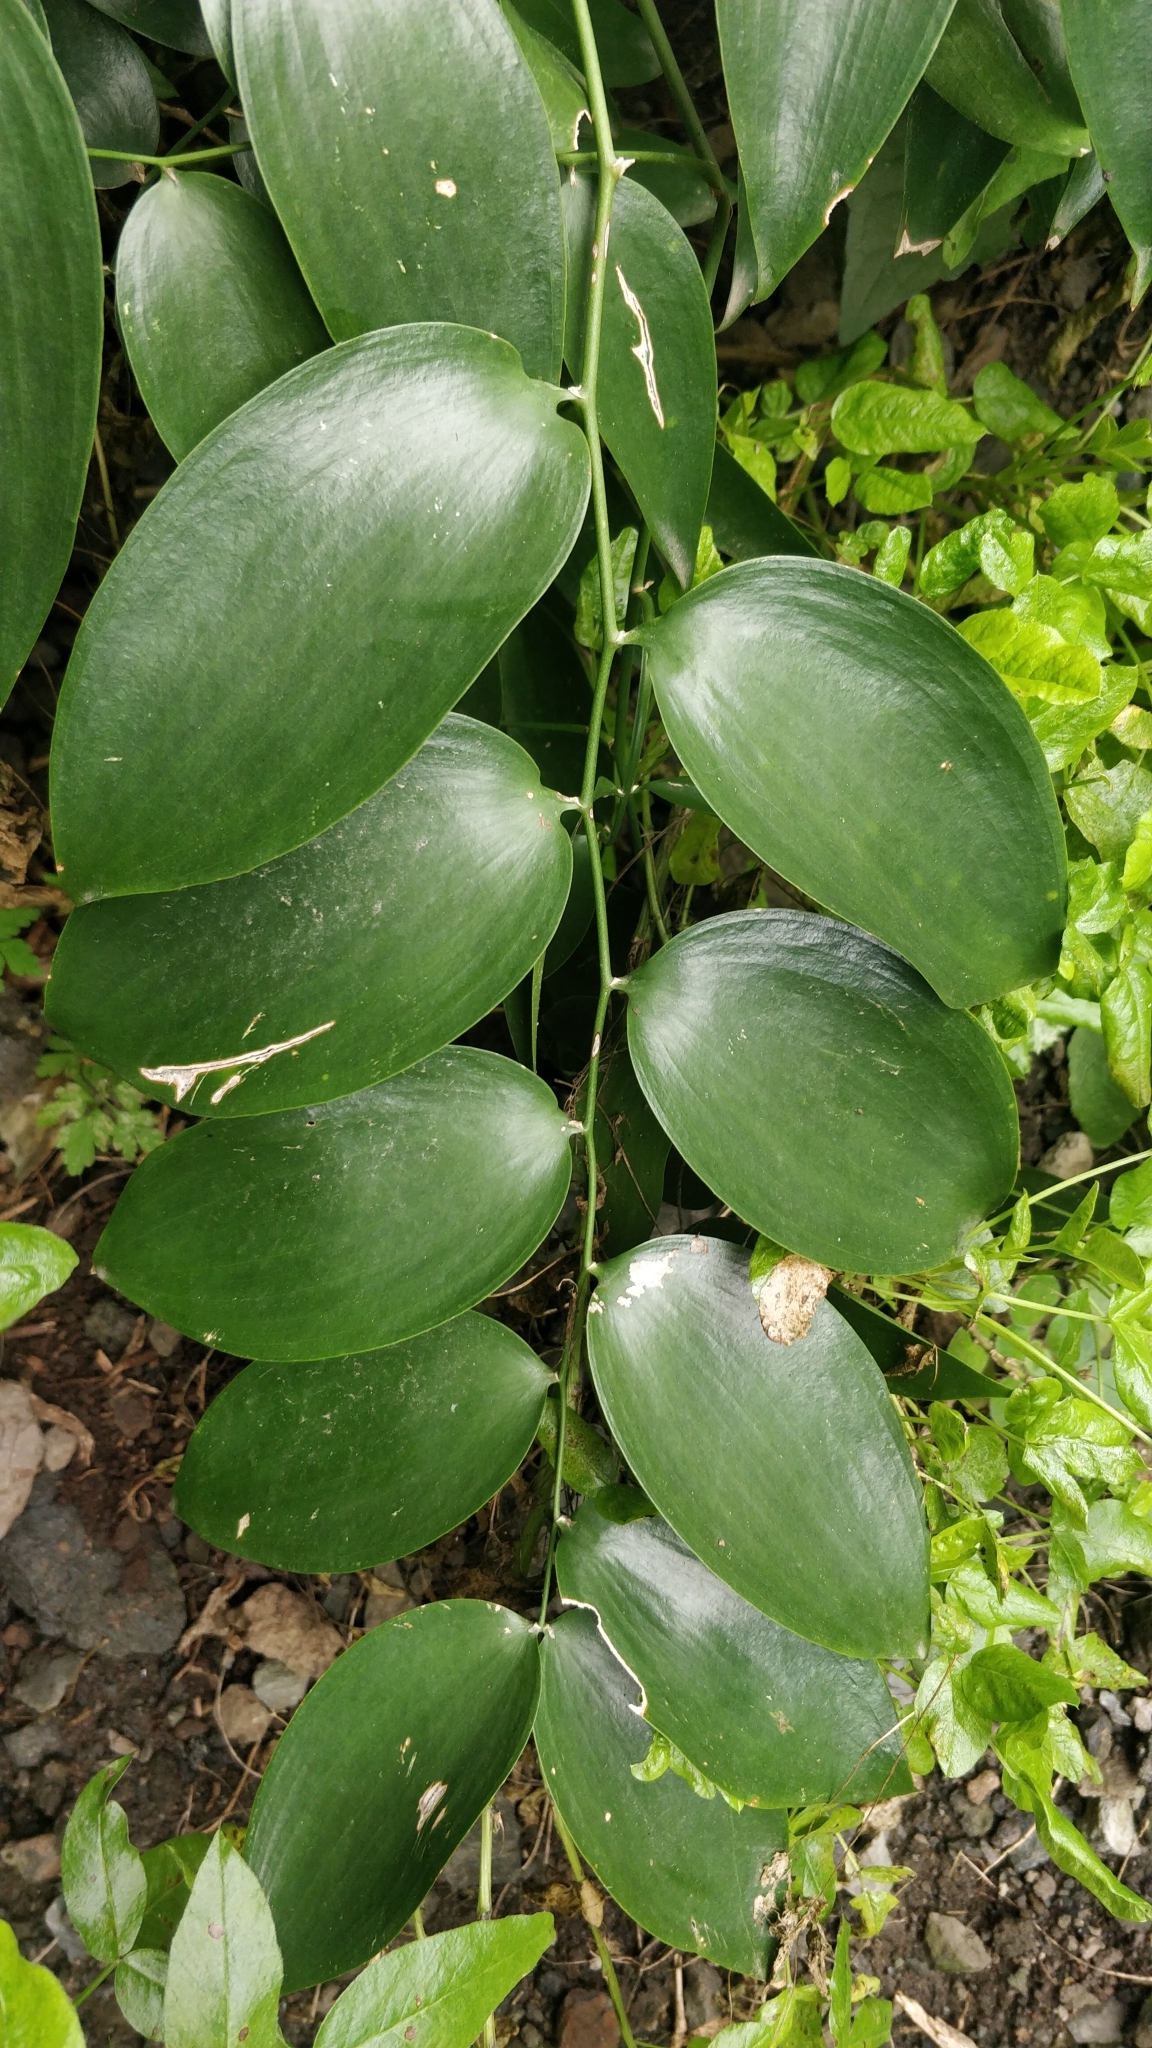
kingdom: Plantae
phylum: Tracheophyta
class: Liliopsida
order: Asparagales
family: Asparagaceae
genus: Semele
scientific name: Semele androgyna
